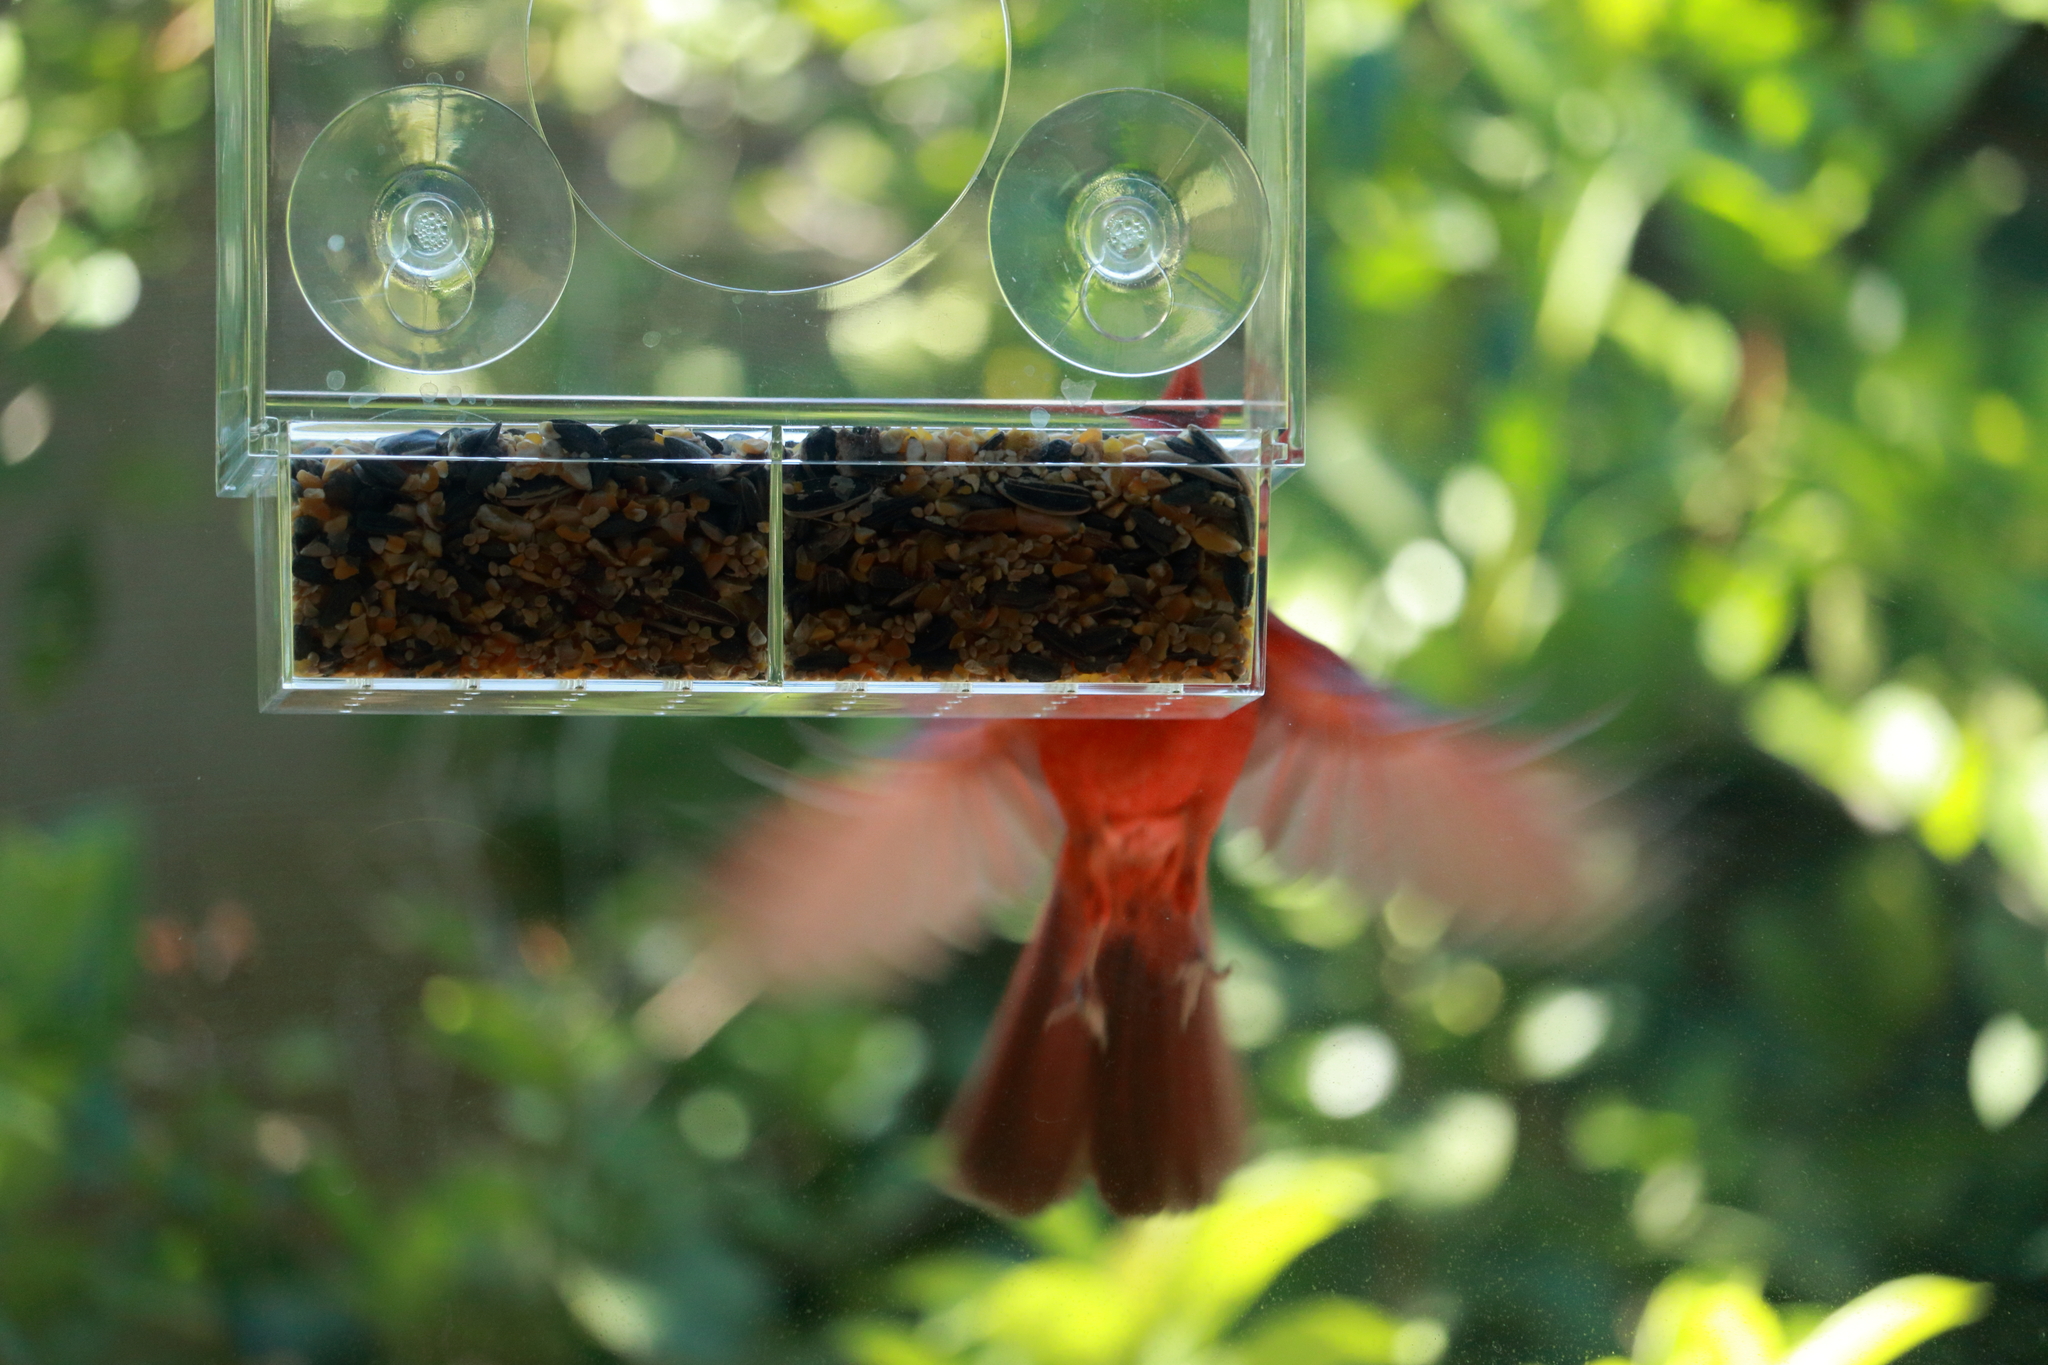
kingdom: Animalia
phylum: Chordata
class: Aves
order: Passeriformes
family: Cardinalidae
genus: Cardinalis
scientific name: Cardinalis cardinalis
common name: Northern cardinal
